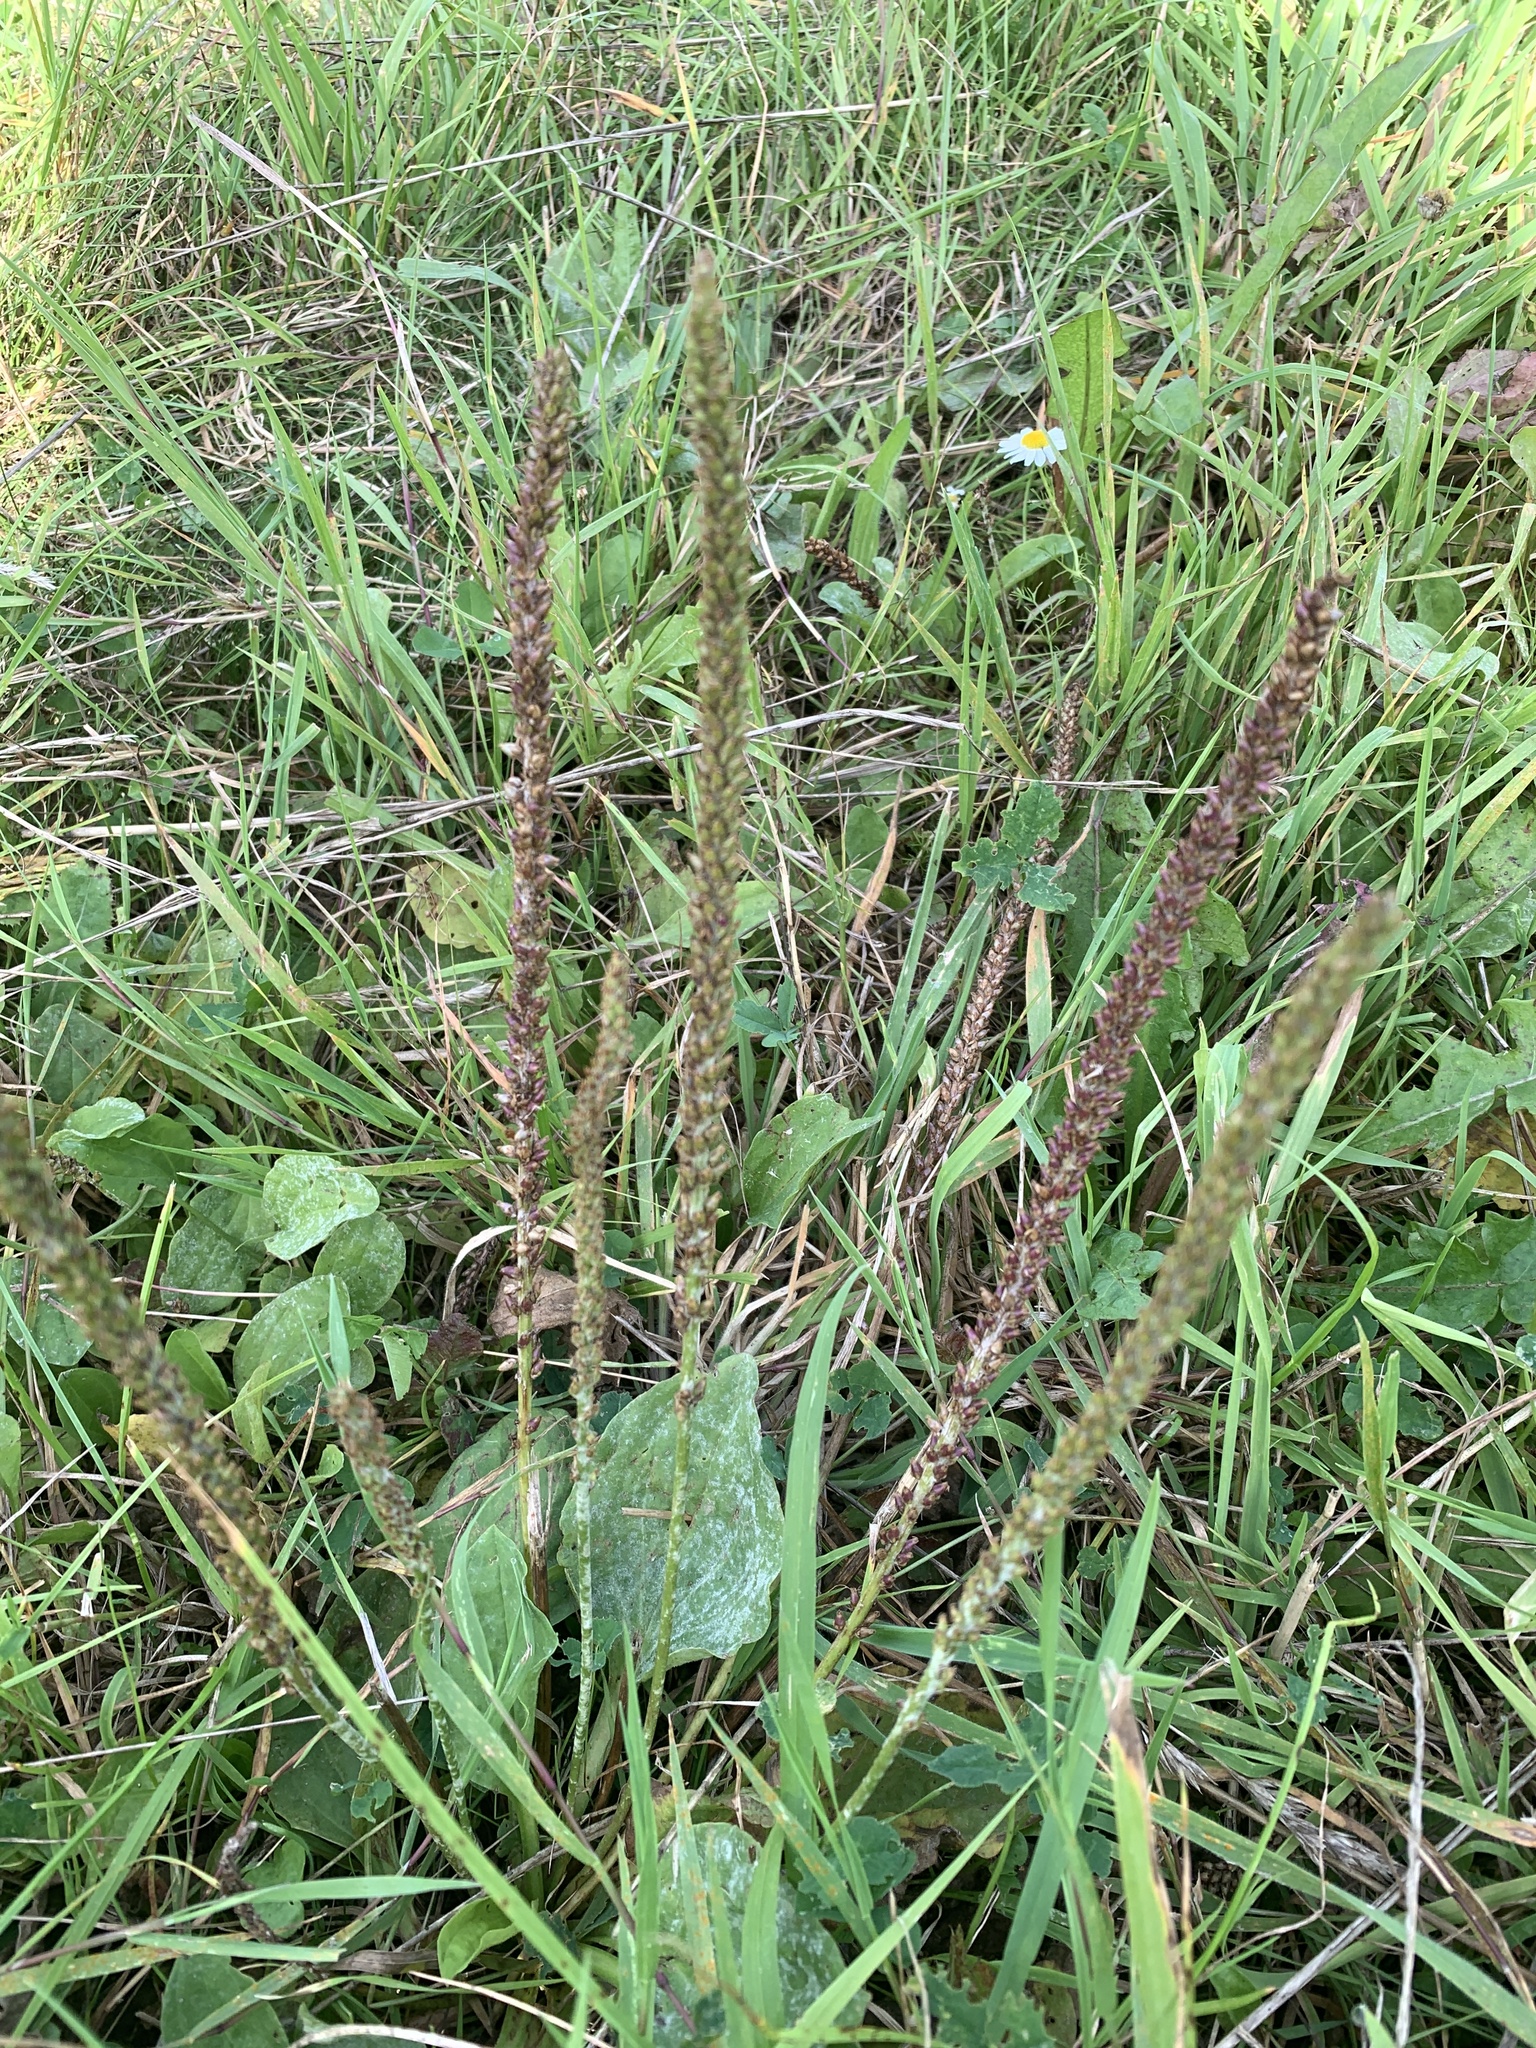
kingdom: Plantae
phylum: Tracheophyta
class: Magnoliopsida
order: Lamiales
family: Plantaginaceae
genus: Plantago
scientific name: Plantago major
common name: Common plantain
